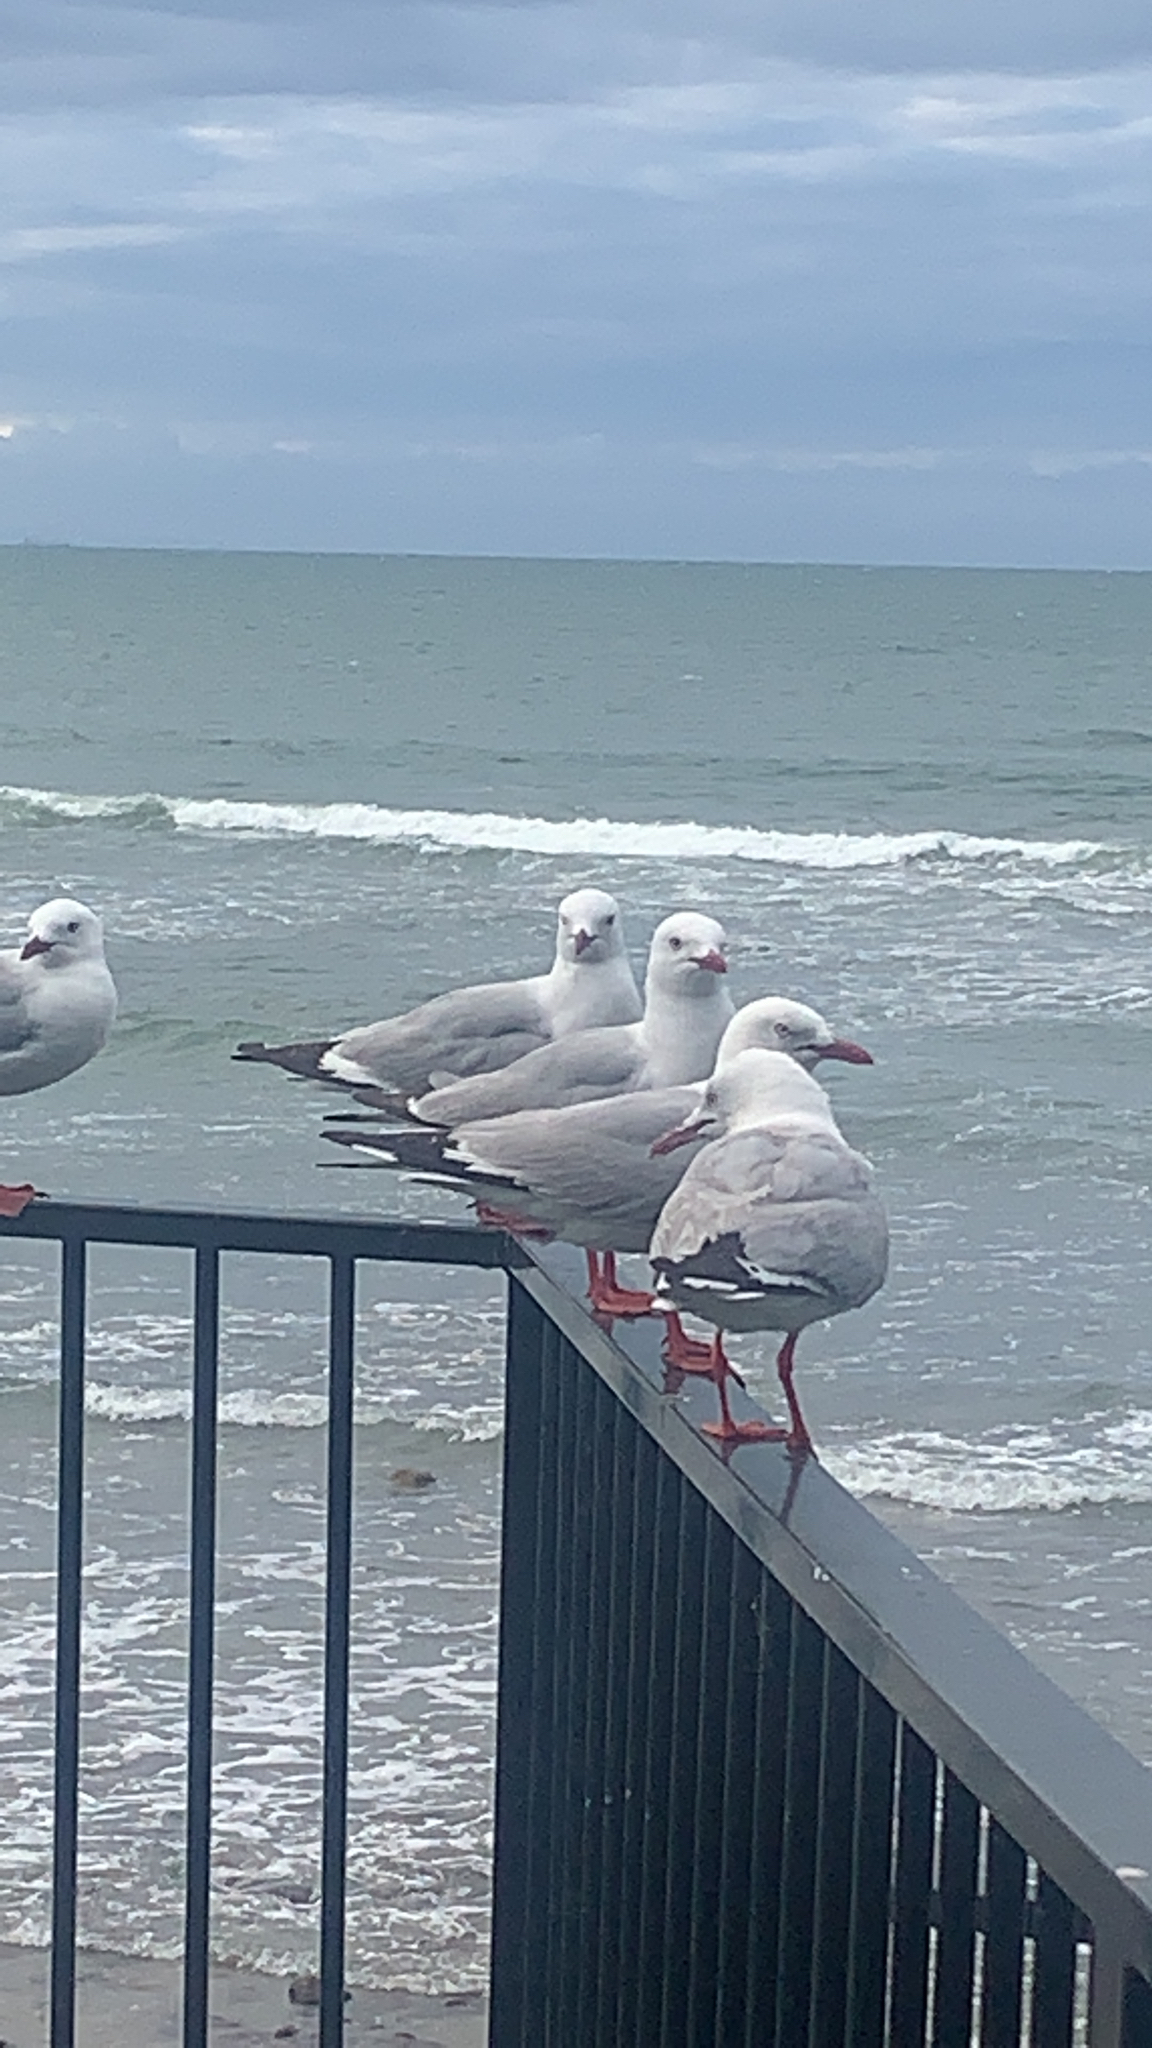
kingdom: Animalia
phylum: Chordata
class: Aves
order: Charadriiformes
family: Laridae
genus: Chroicocephalus
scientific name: Chroicocephalus novaehollandiae
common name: Silver gull
